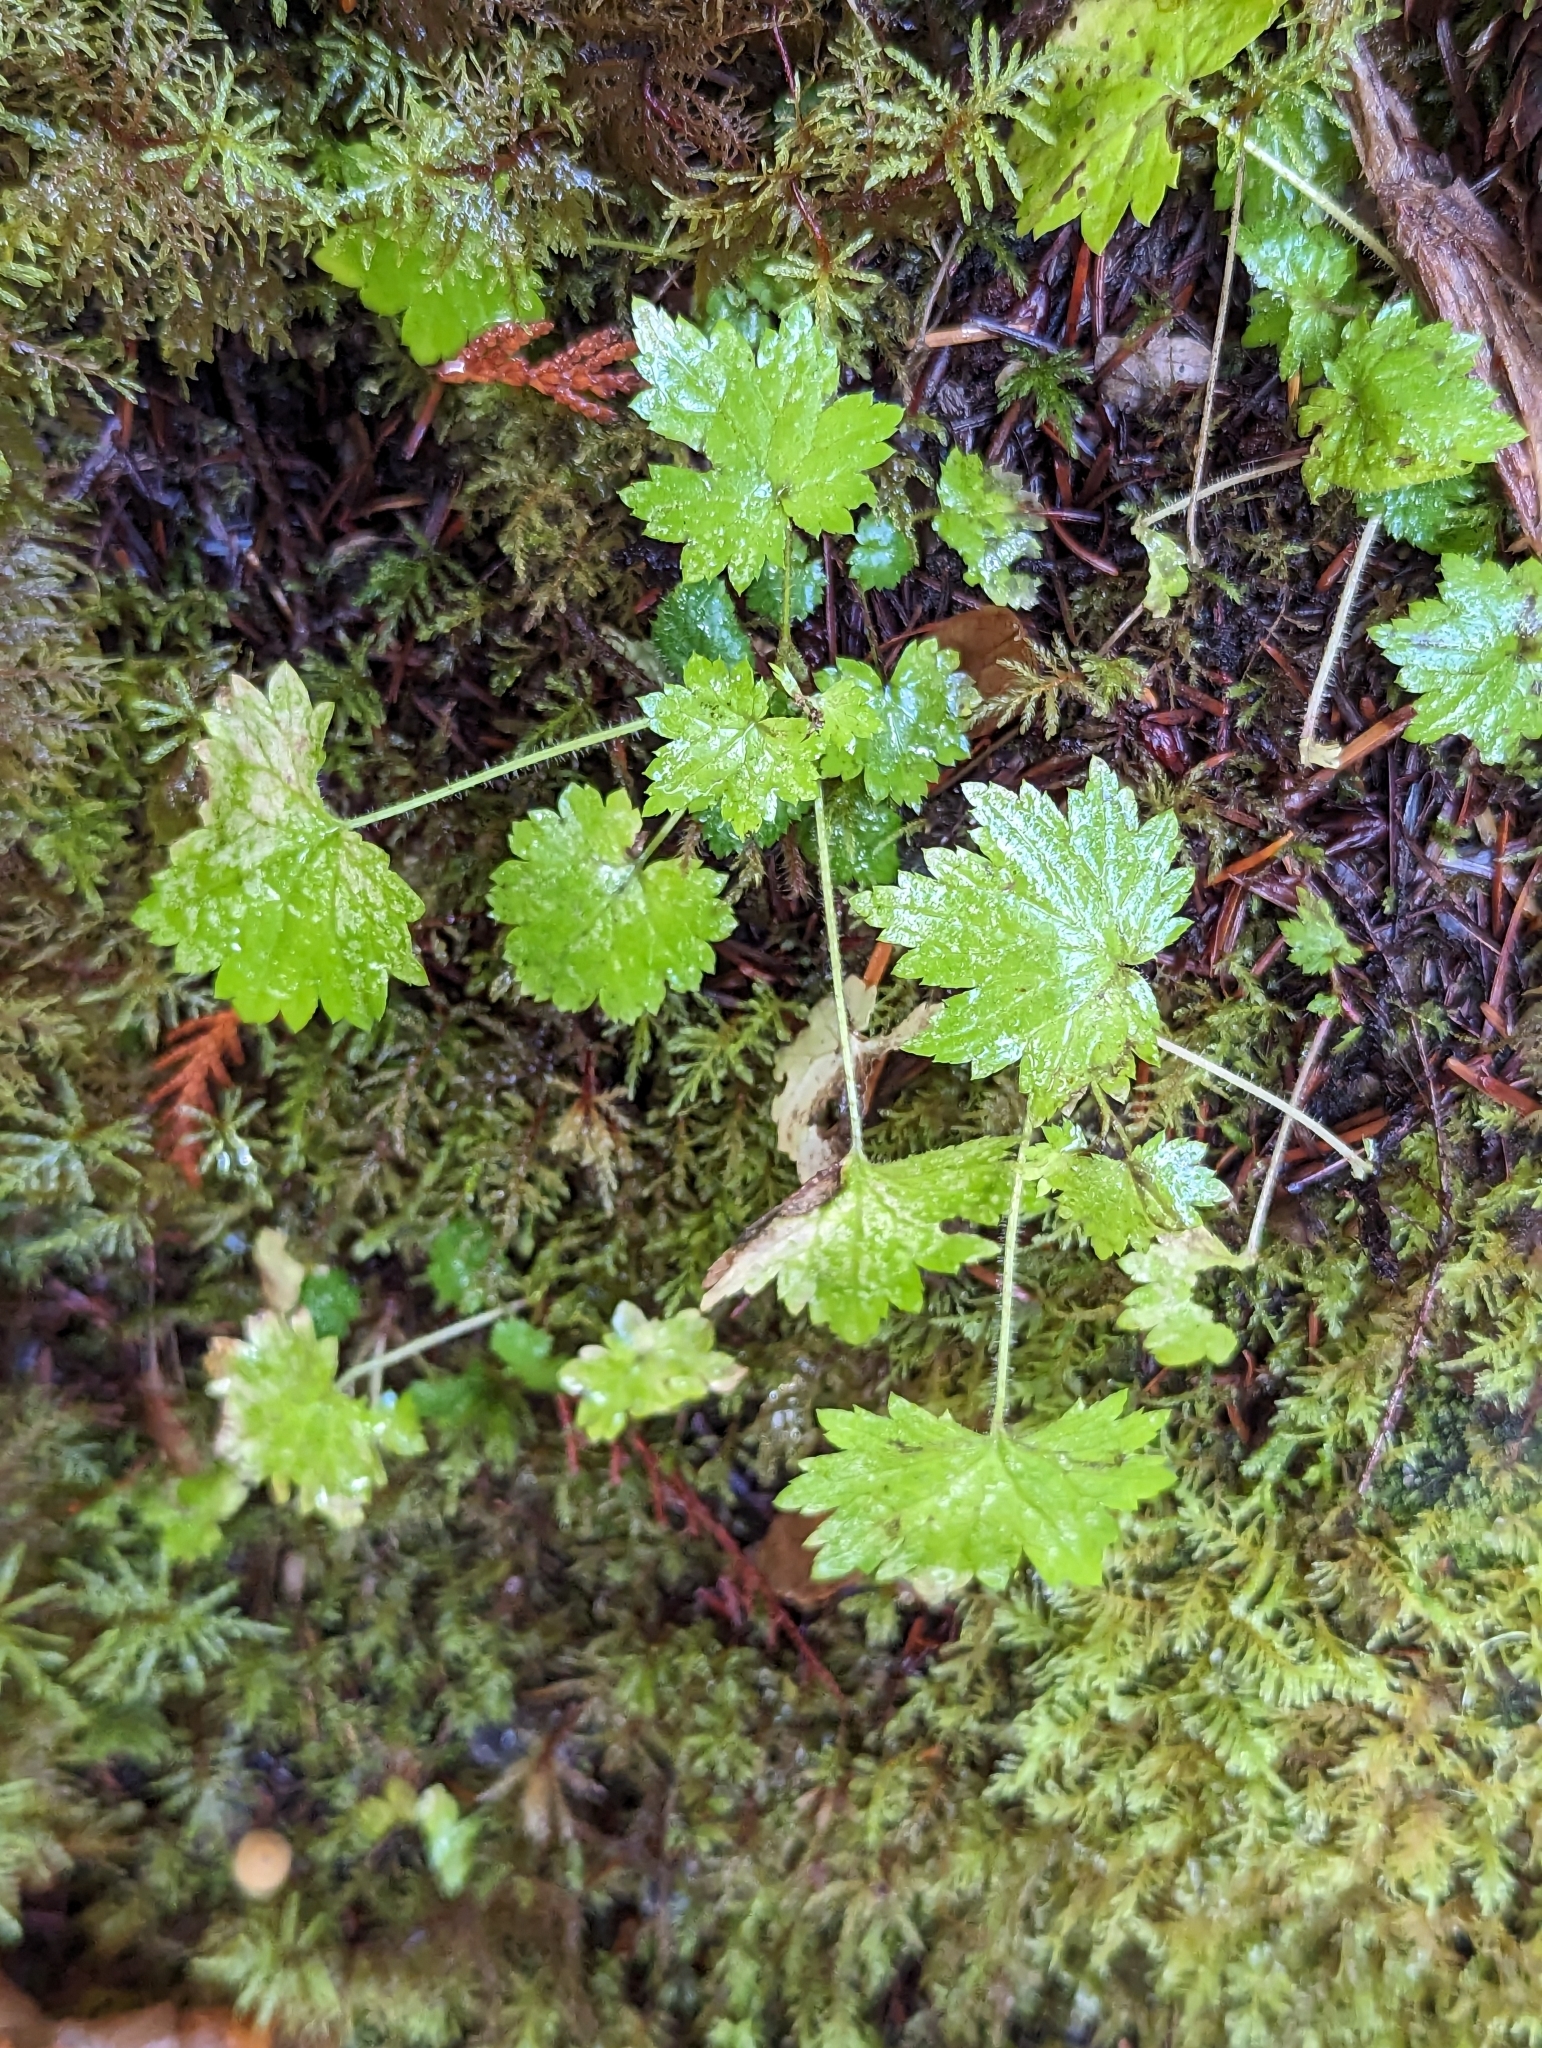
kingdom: Plantae
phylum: Tracheophyta
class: Magnoliopsida
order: Saxifragales
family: Saxifragaceae
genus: Boykinia
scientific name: Boykinia occidentalis
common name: Coast boykinia
